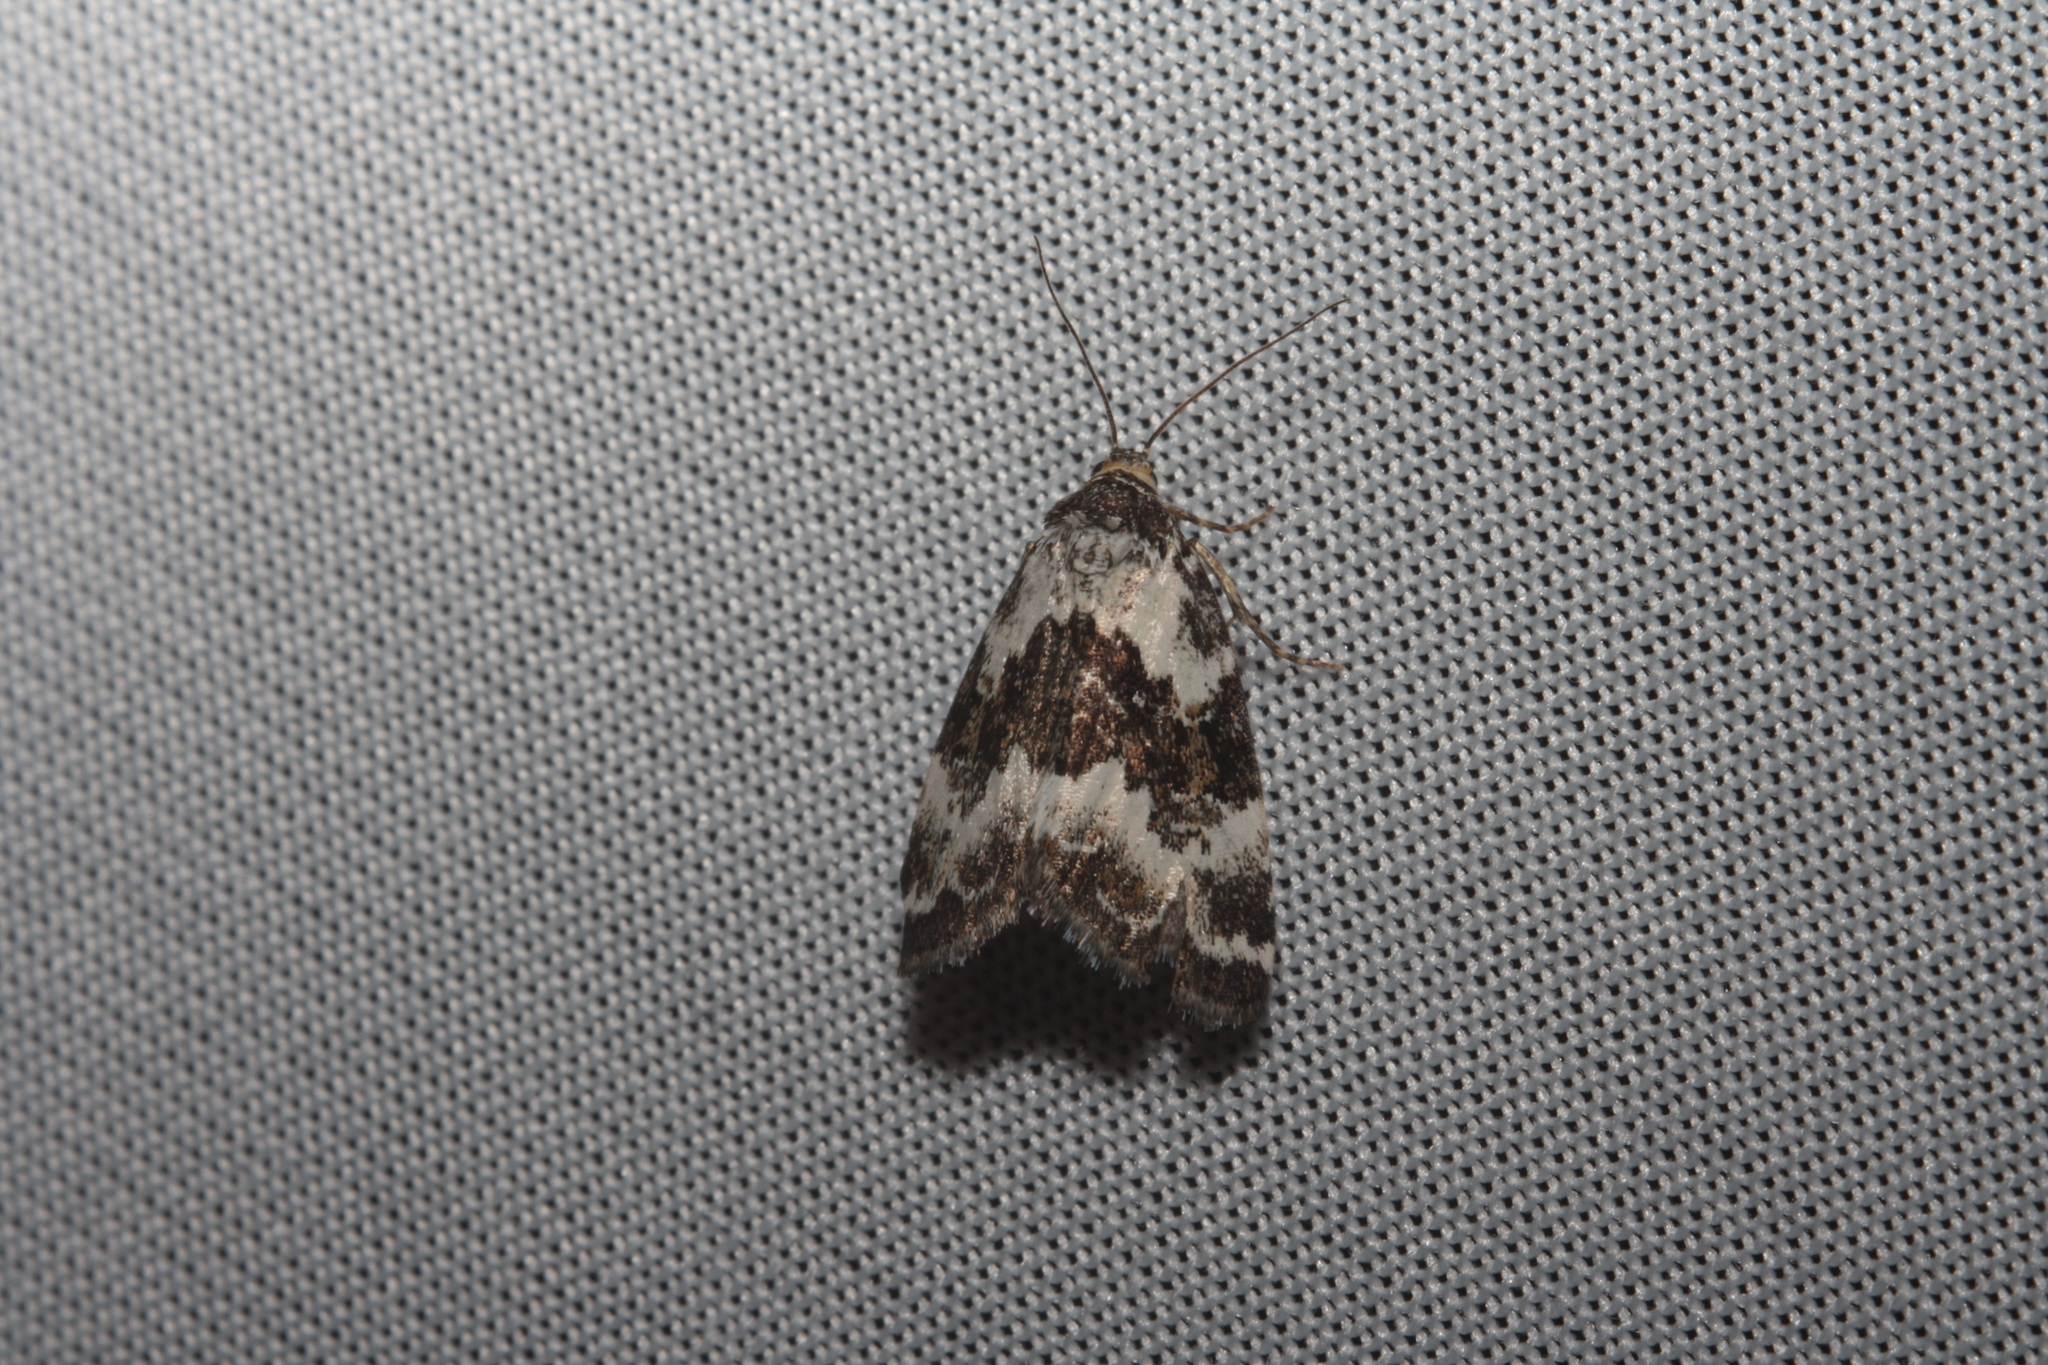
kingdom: Animalia
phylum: Arthropoda
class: Insecta
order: Lepidoptera
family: Noctuidae
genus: Deltote
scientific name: Deltote deceptoria
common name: Pretty marbled
